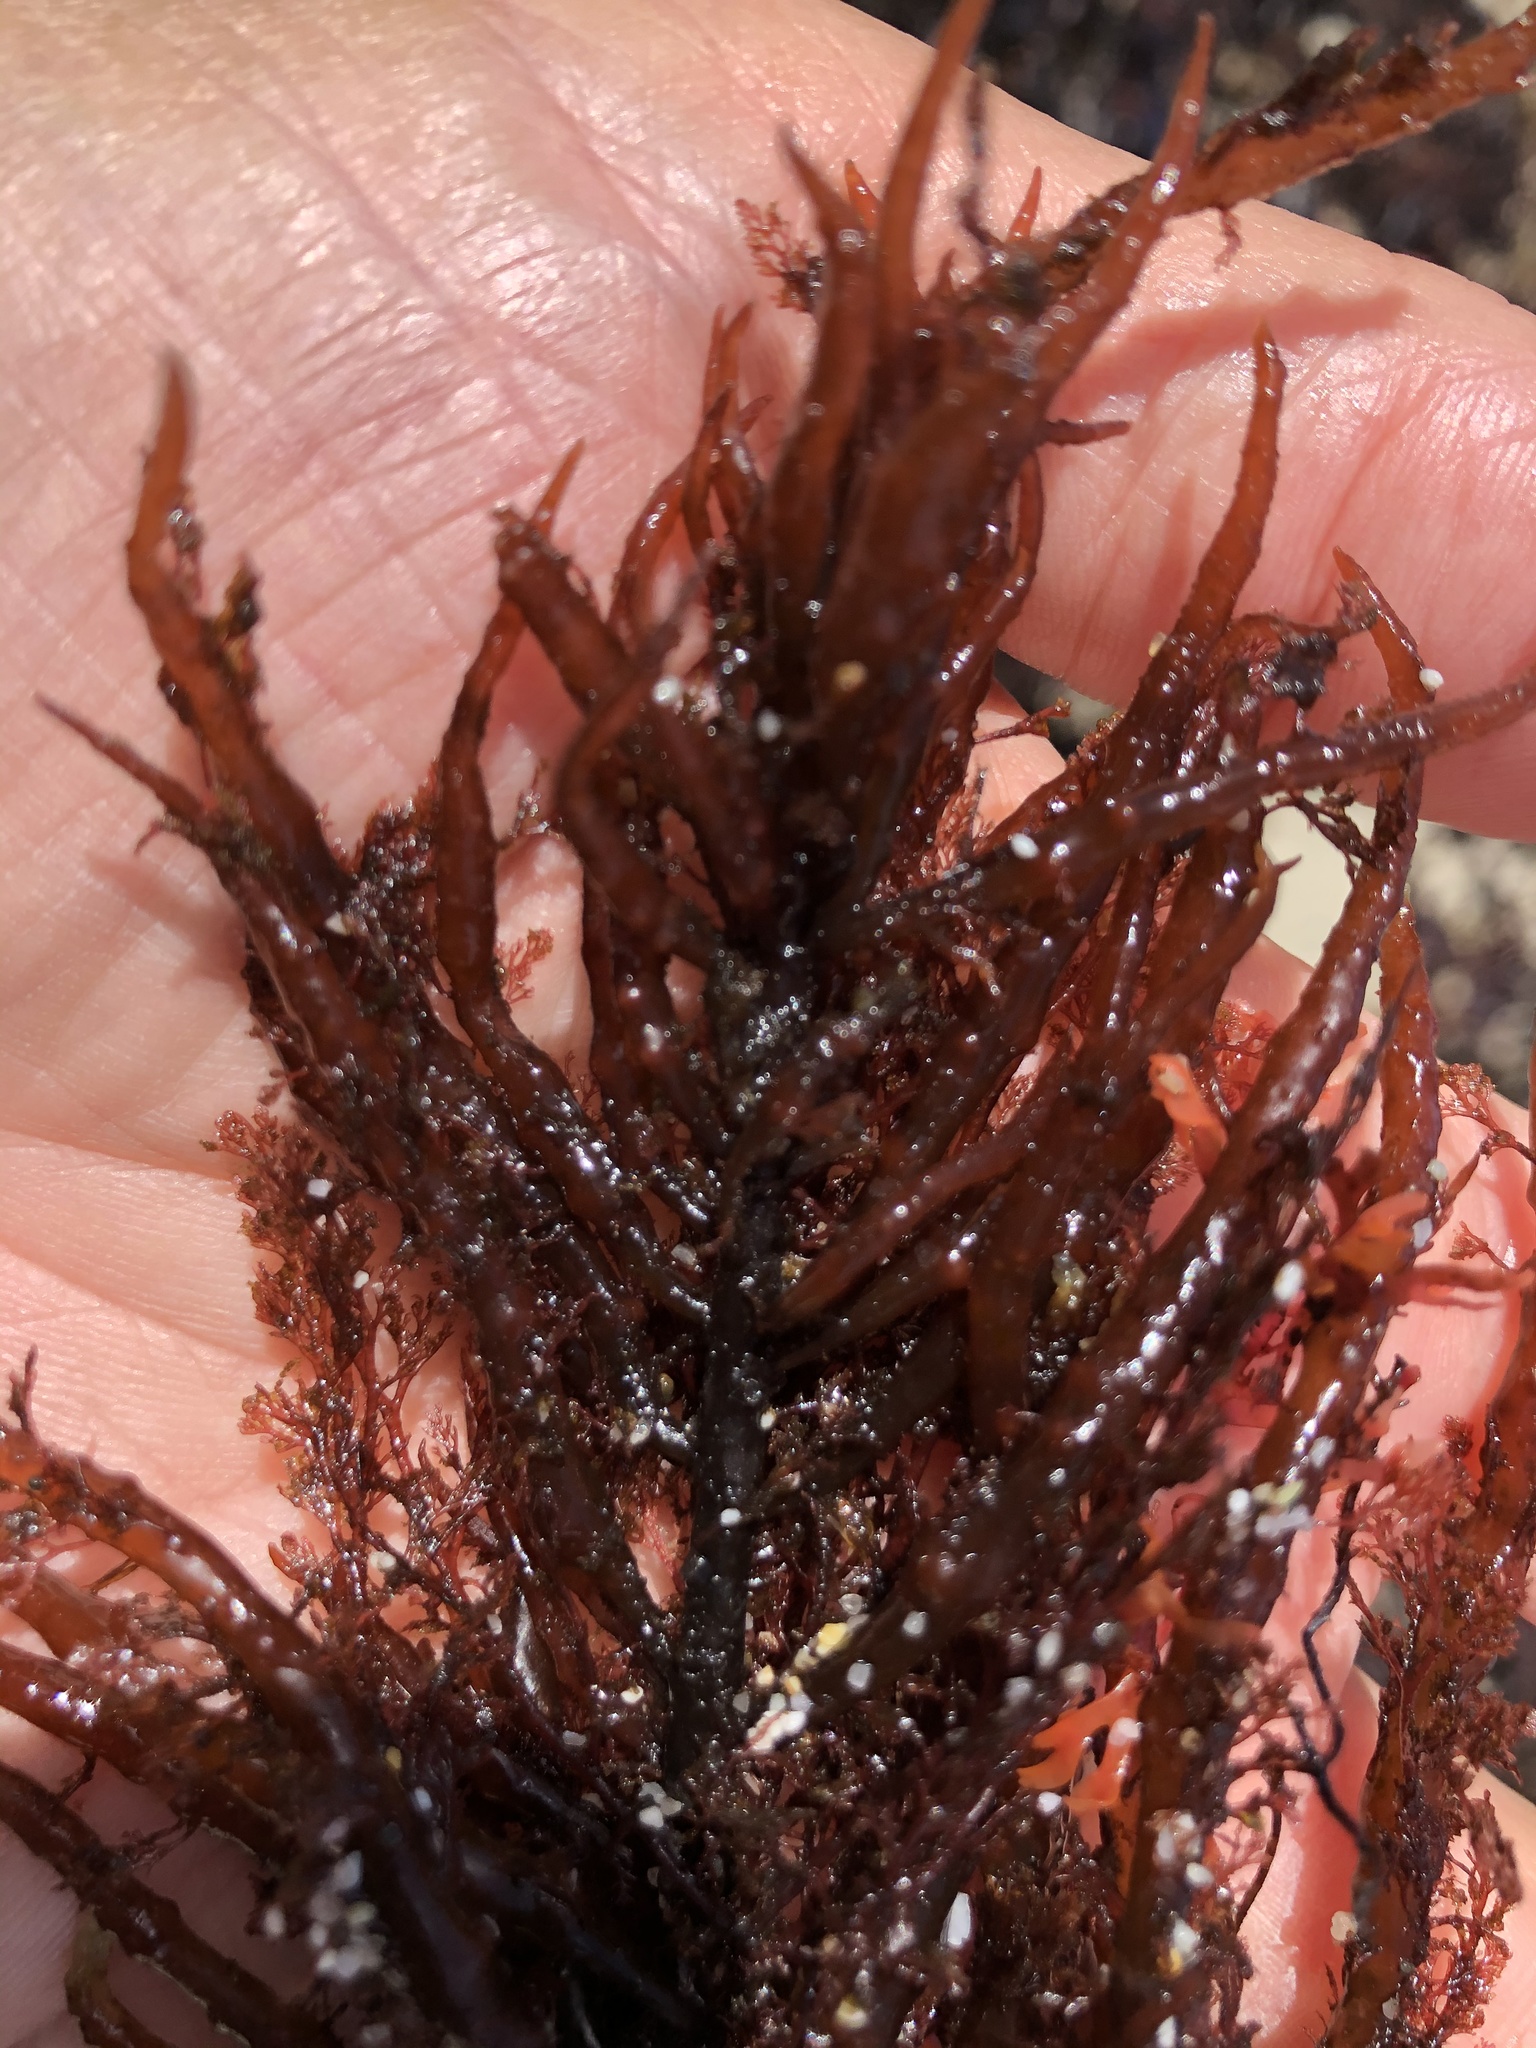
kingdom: Plantae
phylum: Rhodophyta
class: Florideophyceae
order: Gigartinales
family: Solieriaceae
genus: Sarcodiotheca
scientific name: Sarcodiotheca gaudichaudii
